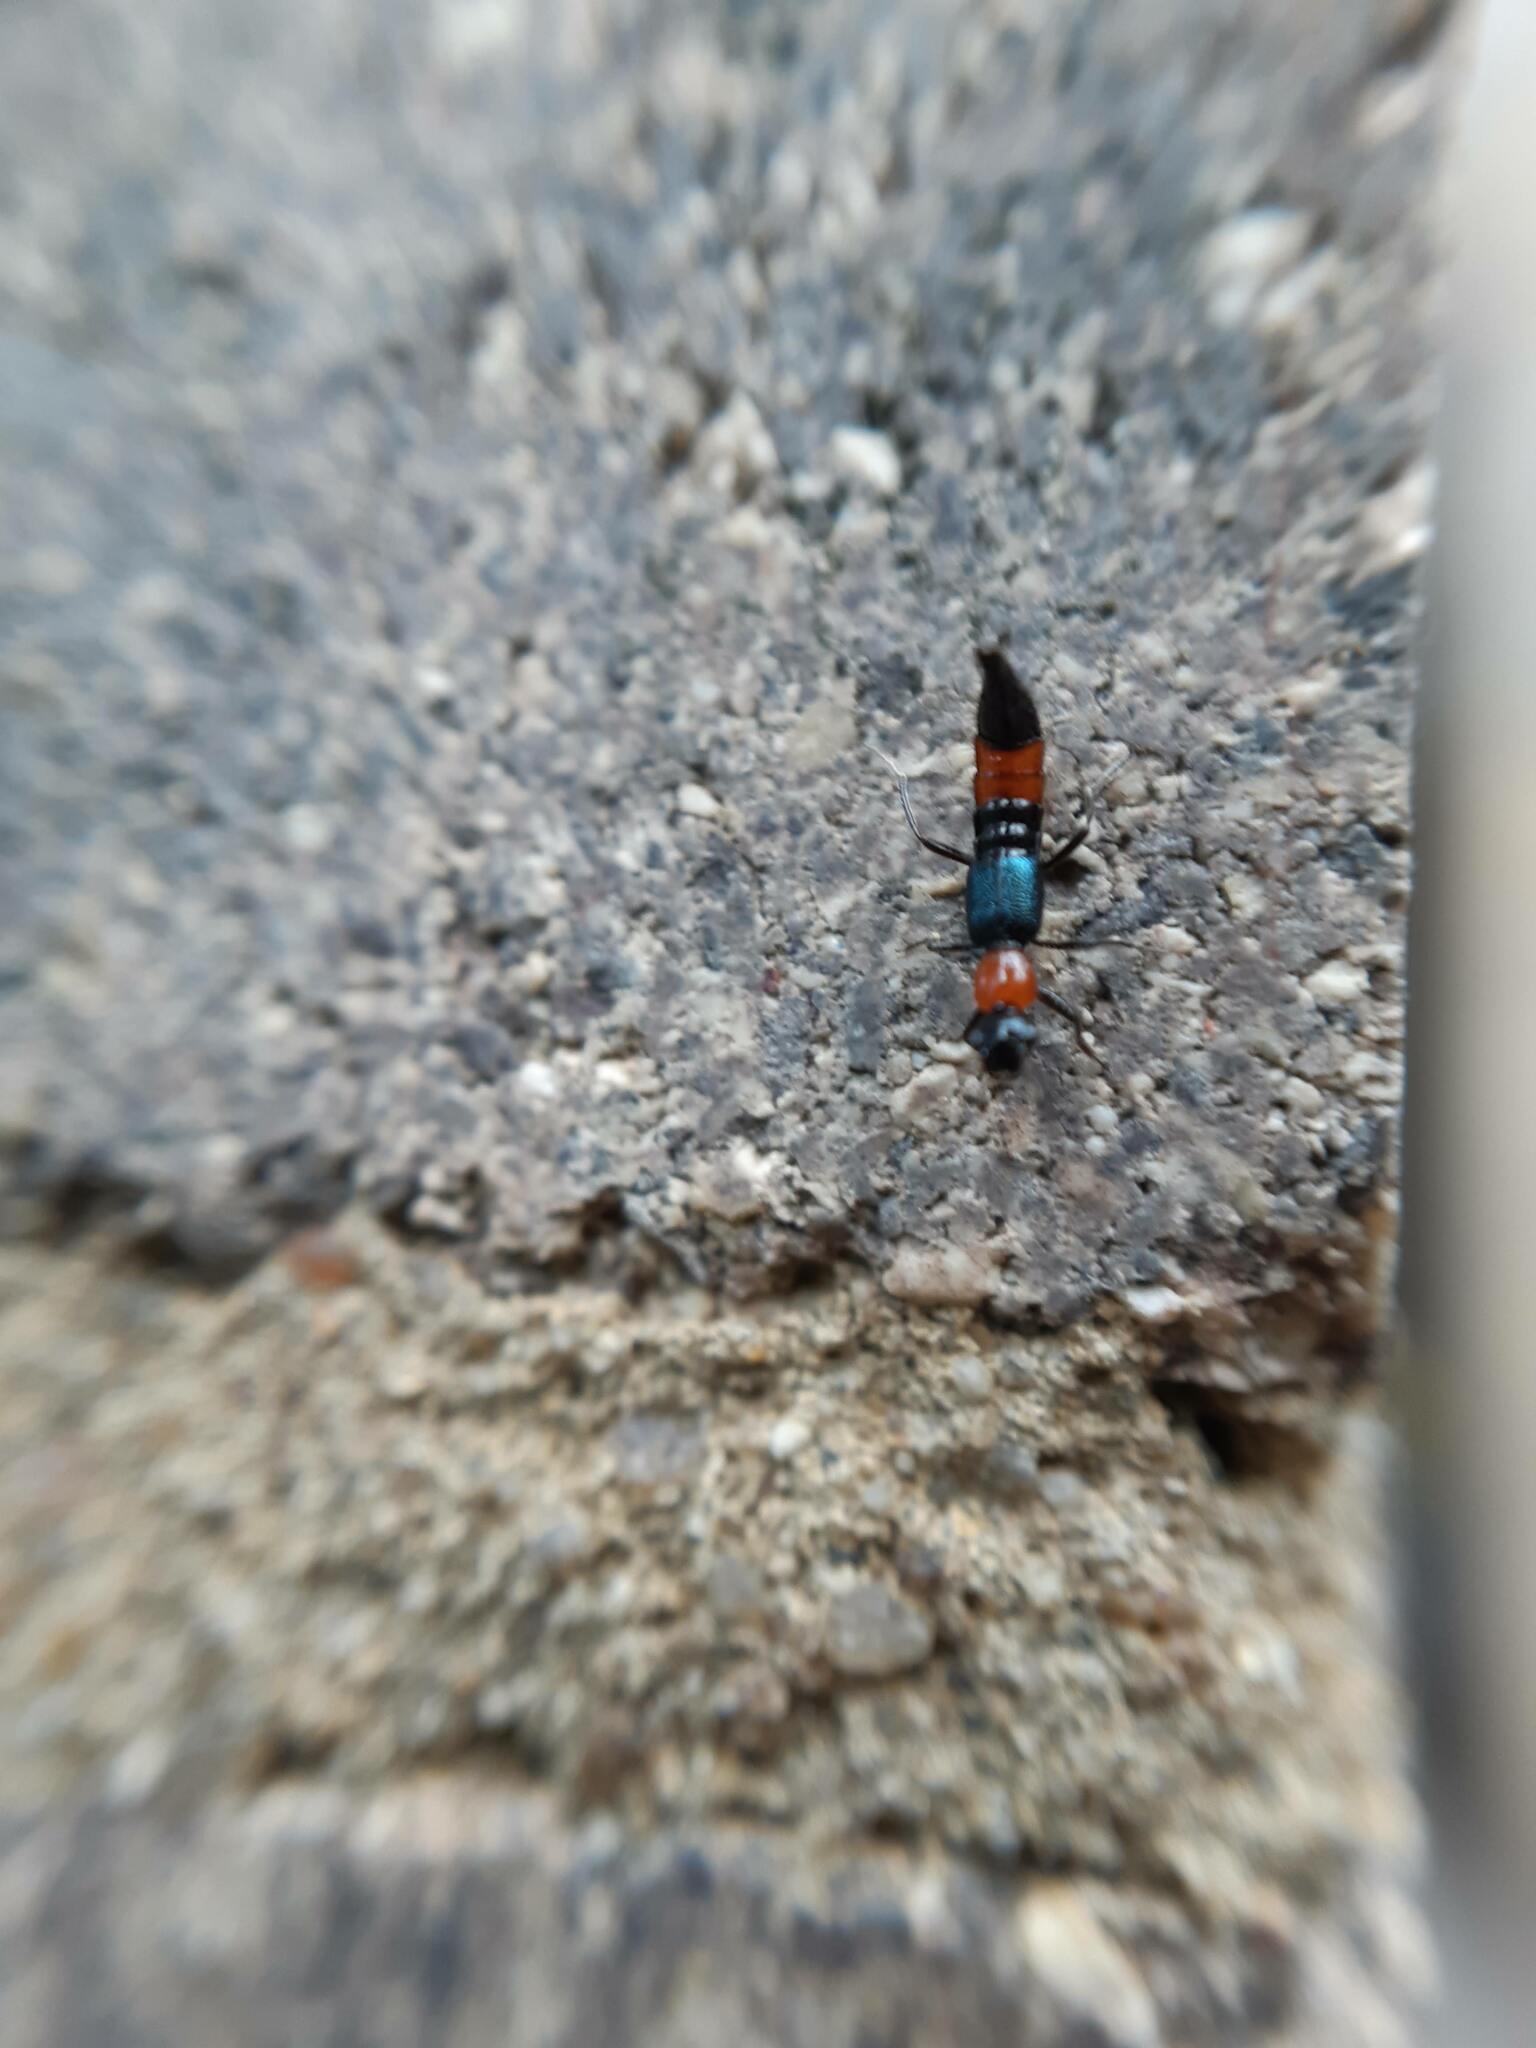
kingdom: Animalia
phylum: Arthropoda
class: Insecta
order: Coleoptera
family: Staphylinidae
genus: Paederus
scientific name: Paederus cruenticollis
